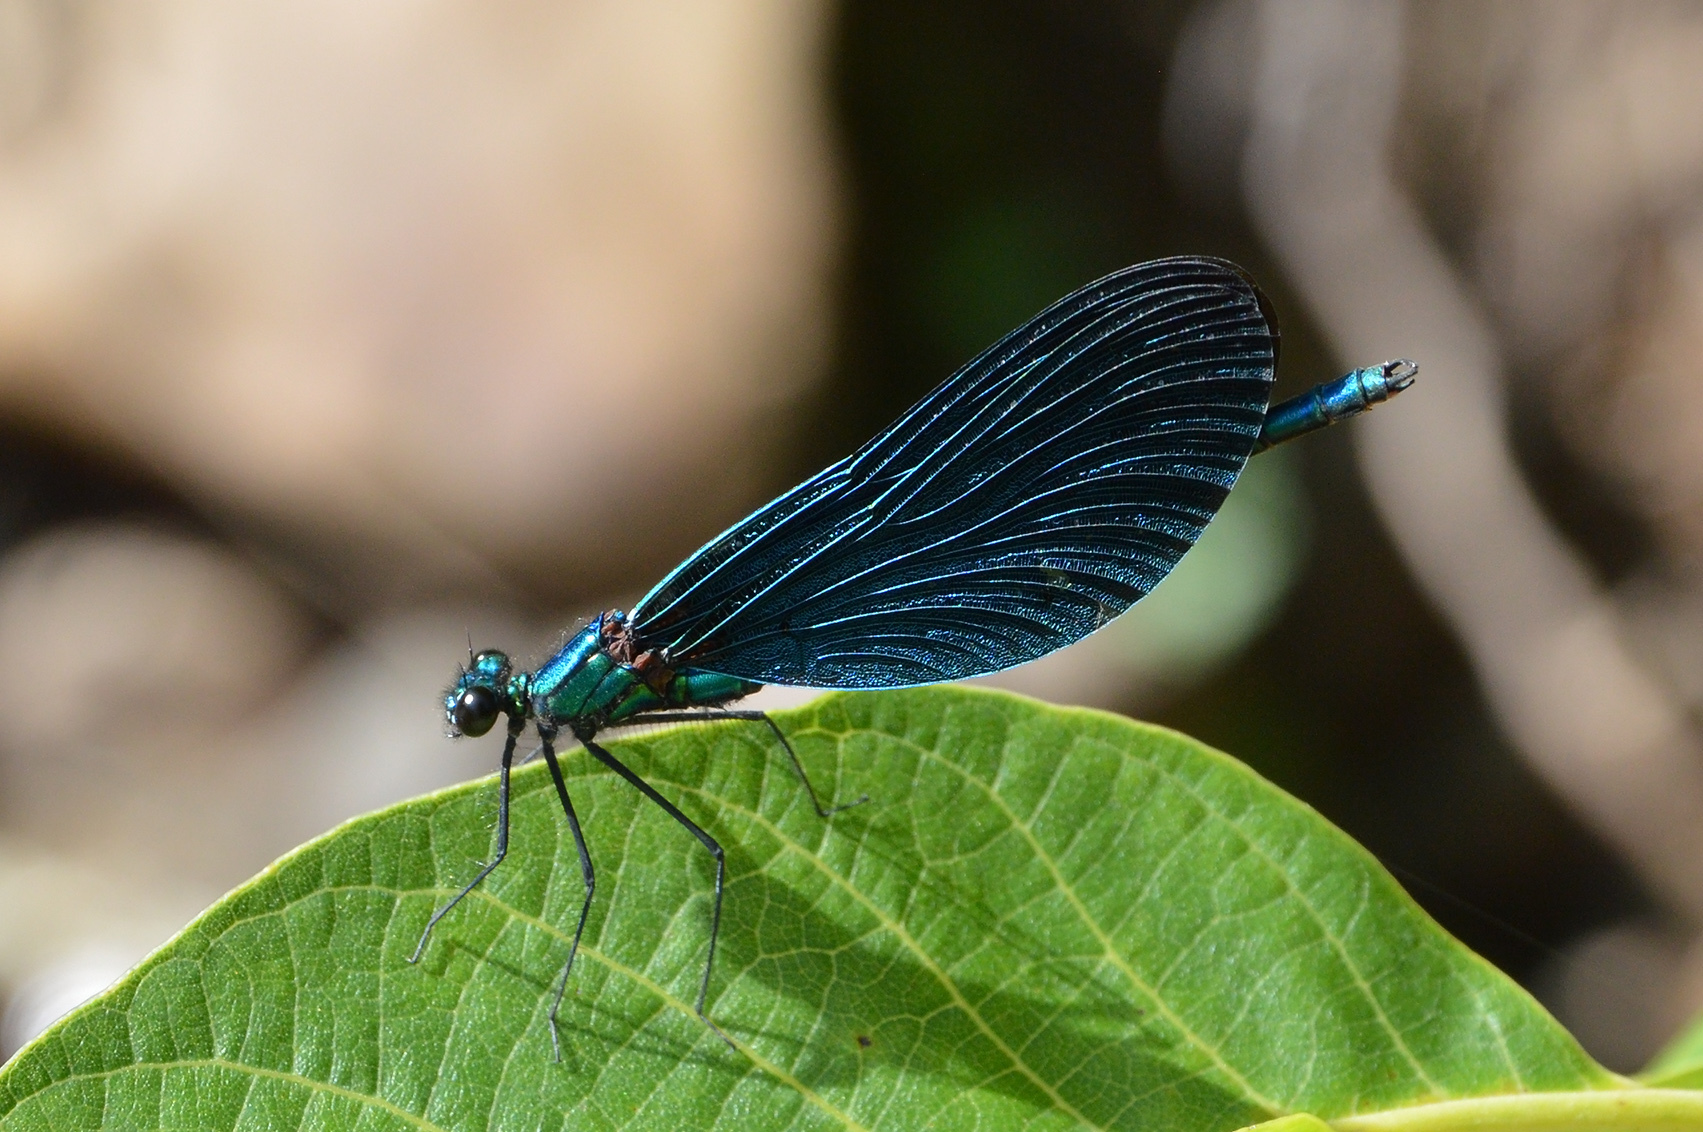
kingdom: Animalia
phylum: Arthropoda
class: Insecta
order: Odonata
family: Calopterygidae
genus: Calopteryx
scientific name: Calopteryx virgo
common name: Beautiful demoiselle
